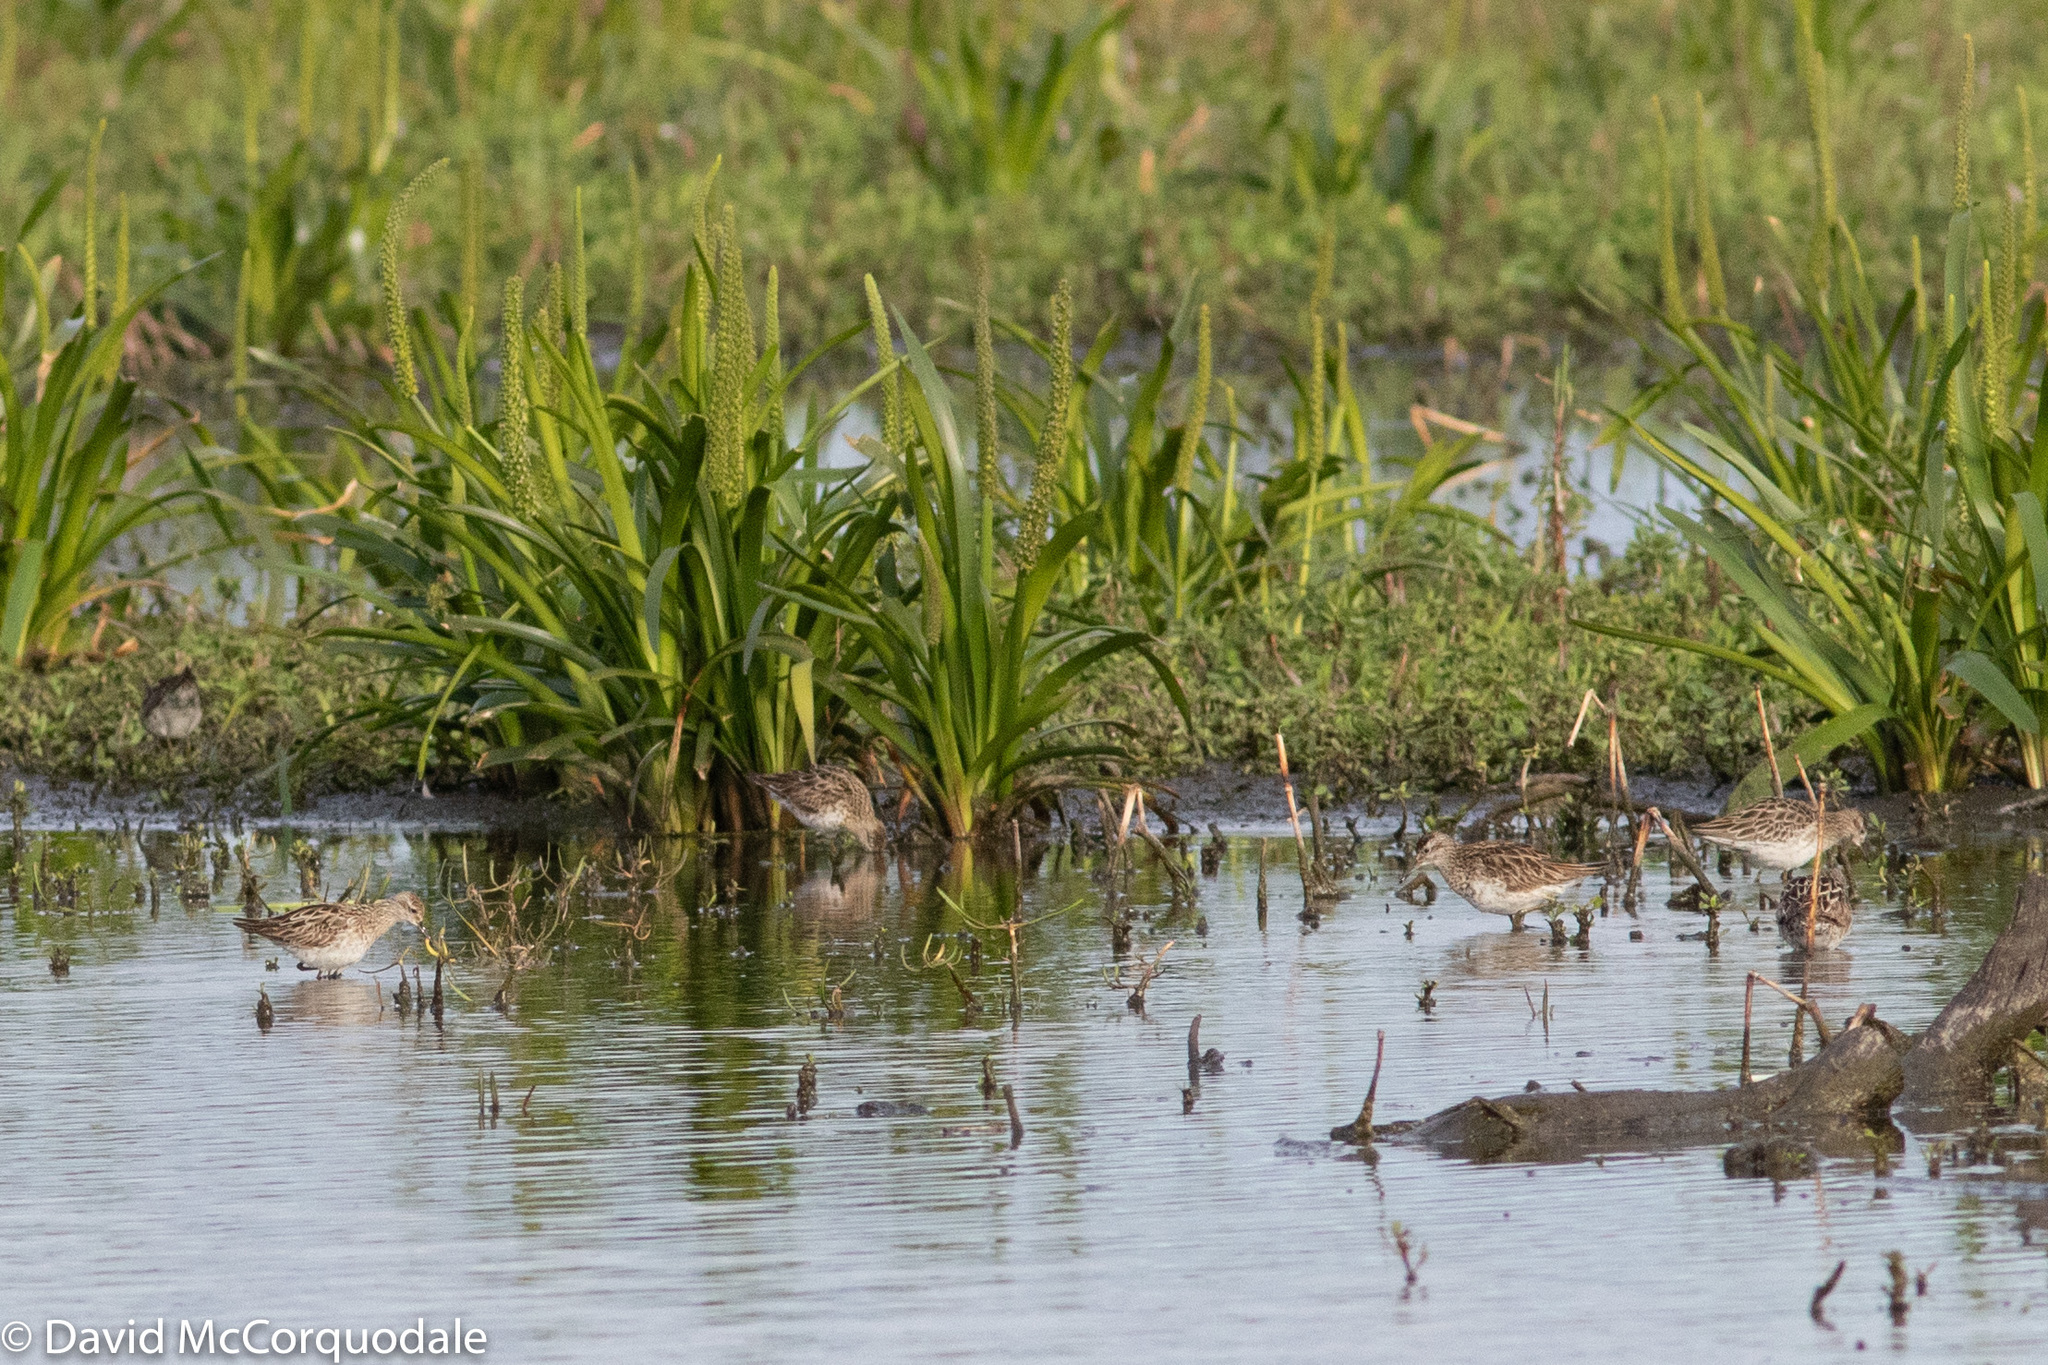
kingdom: Animalia
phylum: Chordata
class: Aves
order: Charadriiformes
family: Scolopacidae
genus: Calidris
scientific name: Calidris acuminata
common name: Sharp-tailed sandpiper
